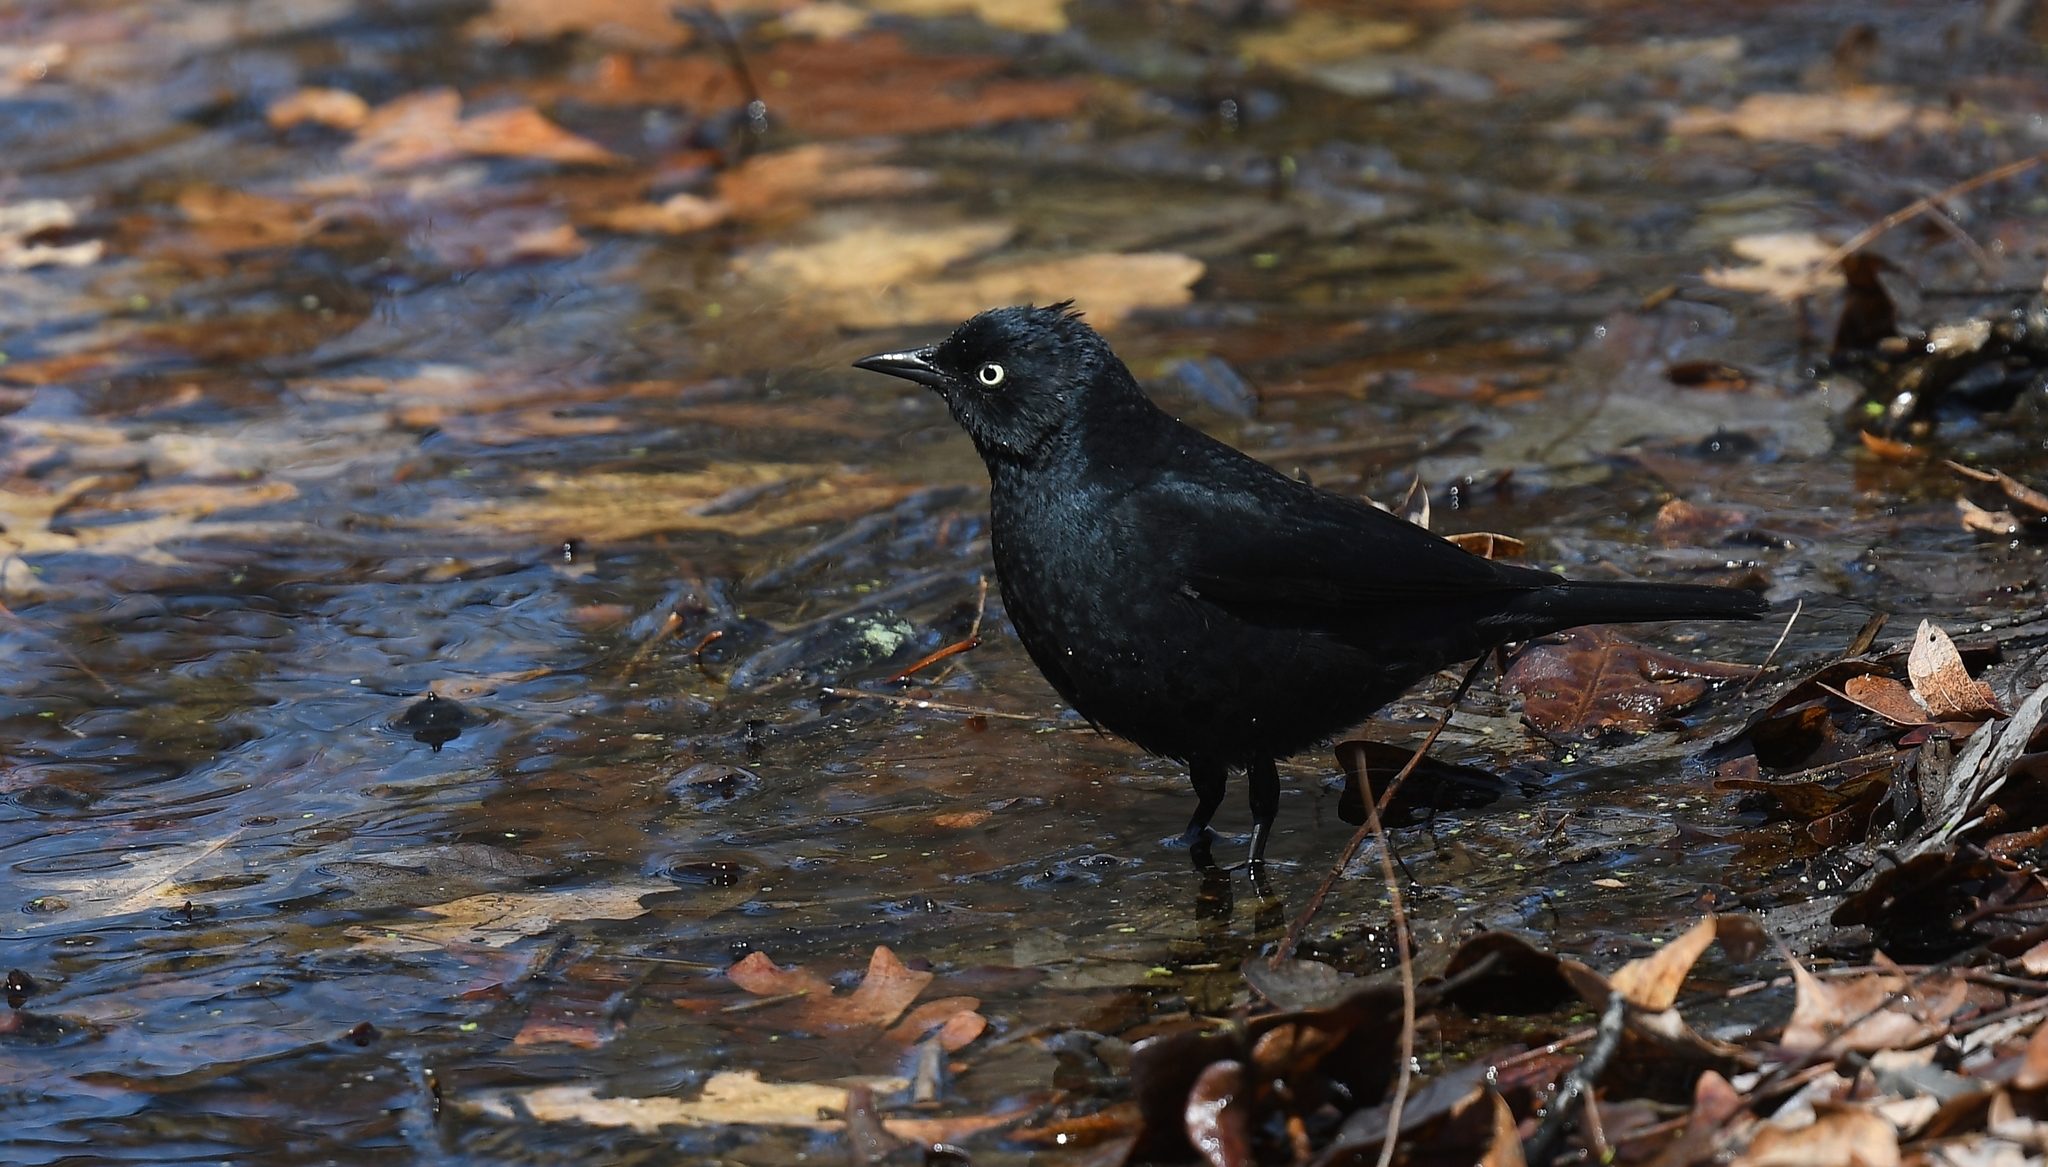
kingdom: Animalia
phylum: Chordata
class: Aves
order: Passeriformes
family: Icteridae
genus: Euphagus
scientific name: Euphagus carolinus
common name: Rusty blackbird
